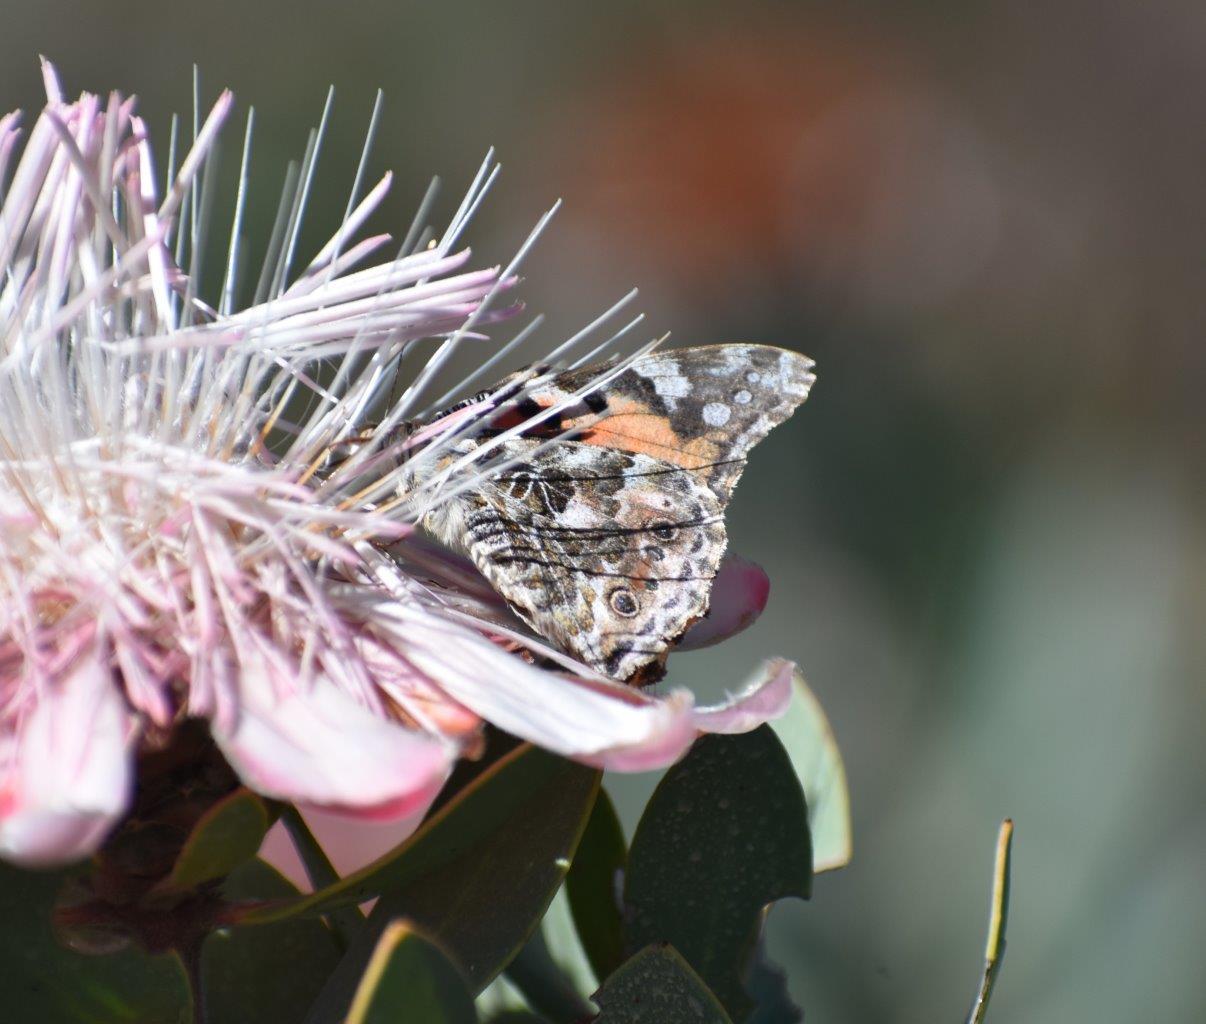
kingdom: Animalia
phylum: Arthropoda
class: Insecta
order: Lepidoptera
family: Nymphalidae
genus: Vanessa
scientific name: Vanessa cardui
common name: Painted lady
